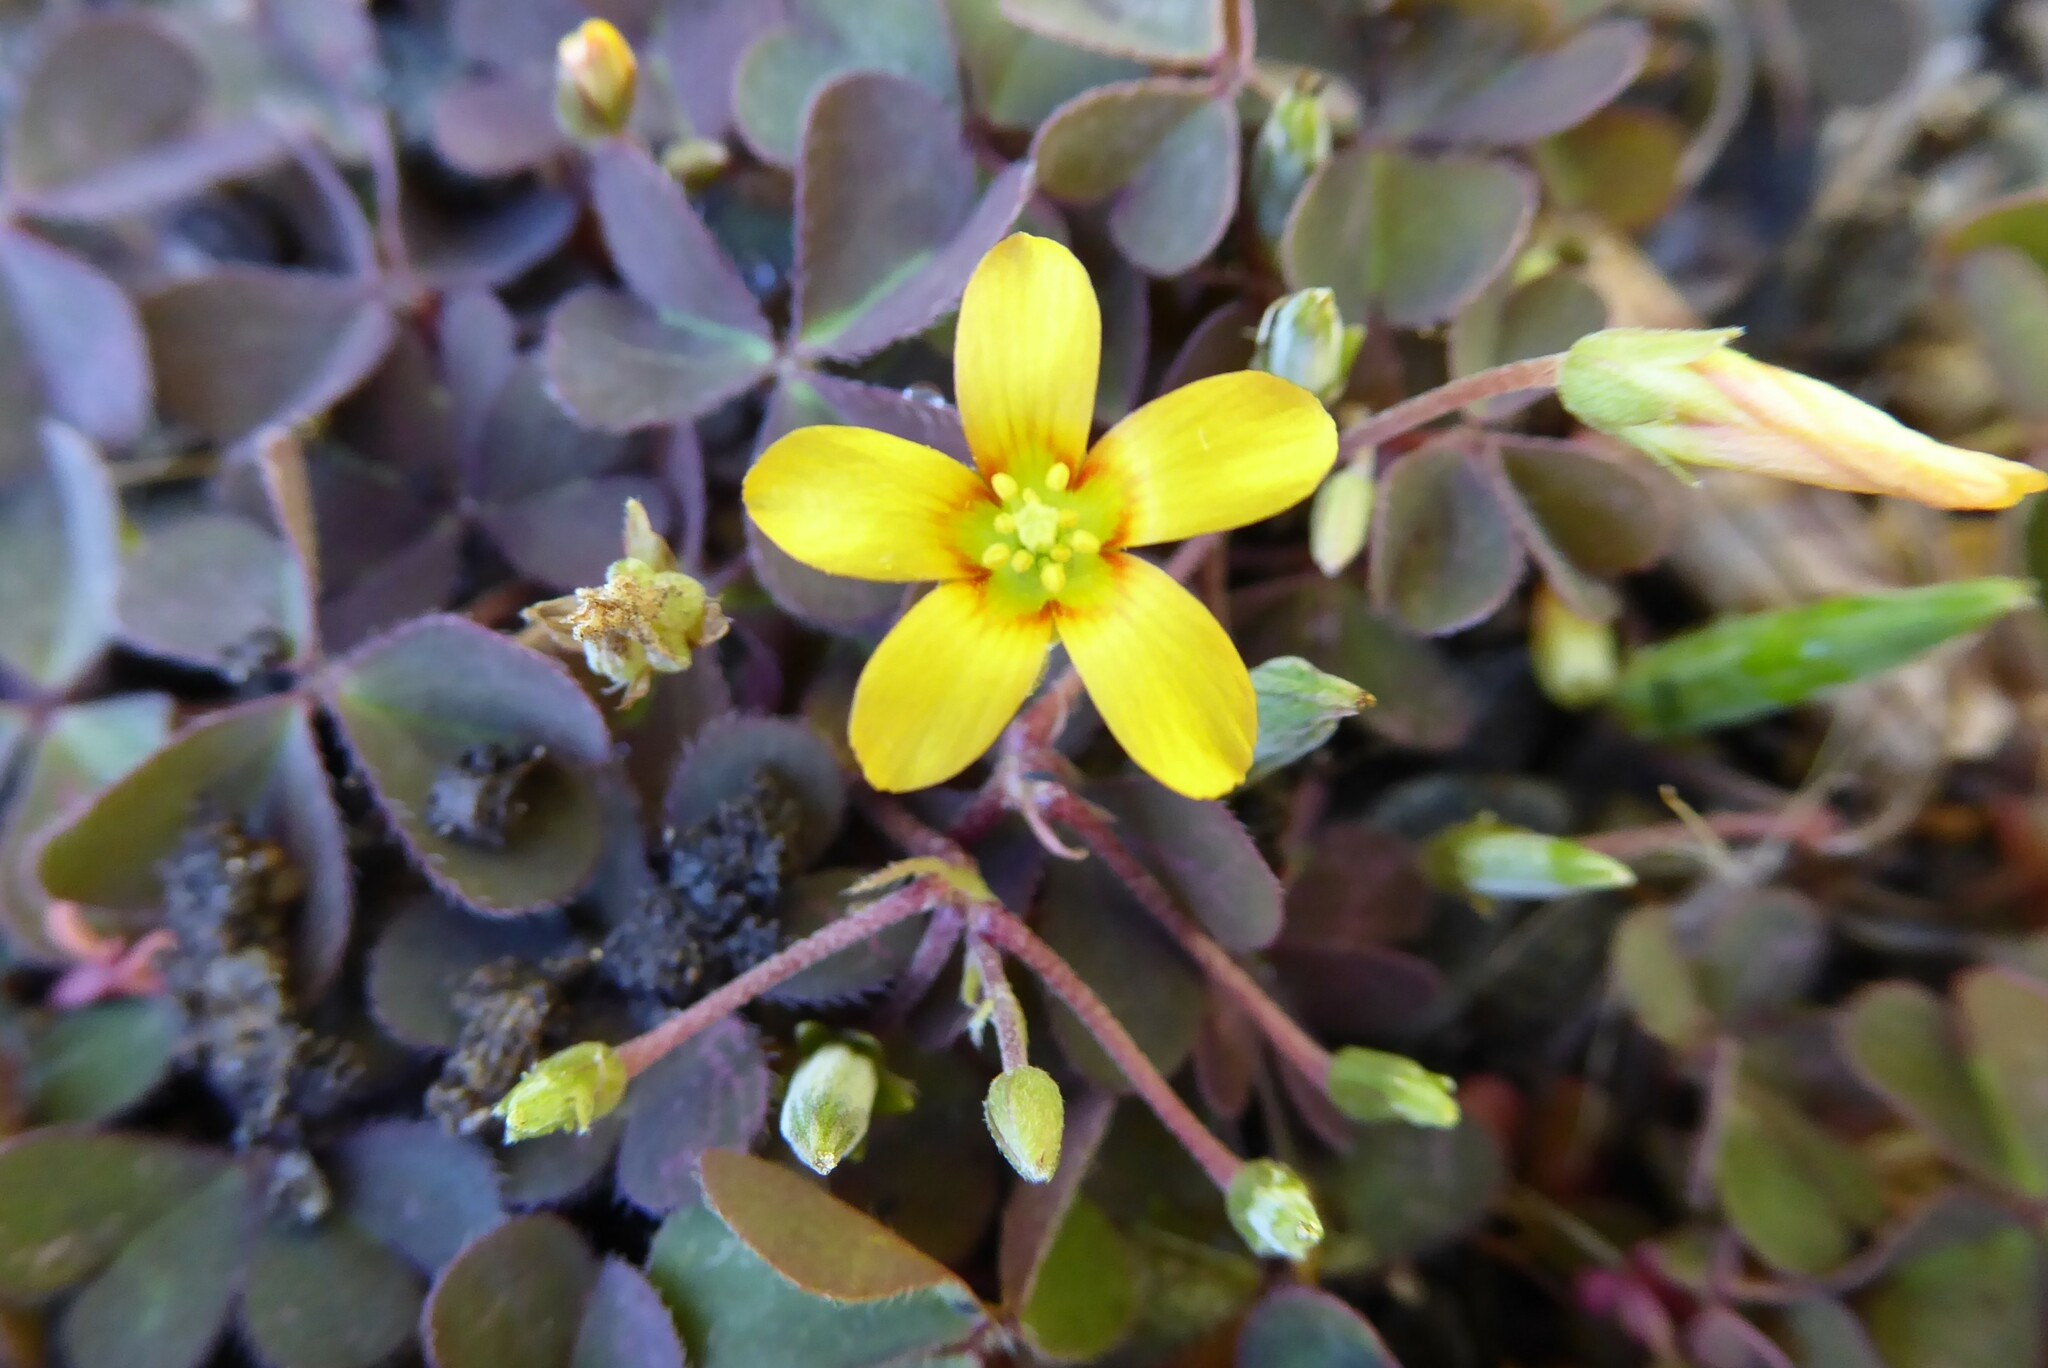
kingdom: Plantae
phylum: Tracheophyta
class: Magnoliopsida
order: Oxalidales
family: Oxalidaceae
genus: Oxalis
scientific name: Oxalis corniculata
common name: Procumbent yellow-sorrel
